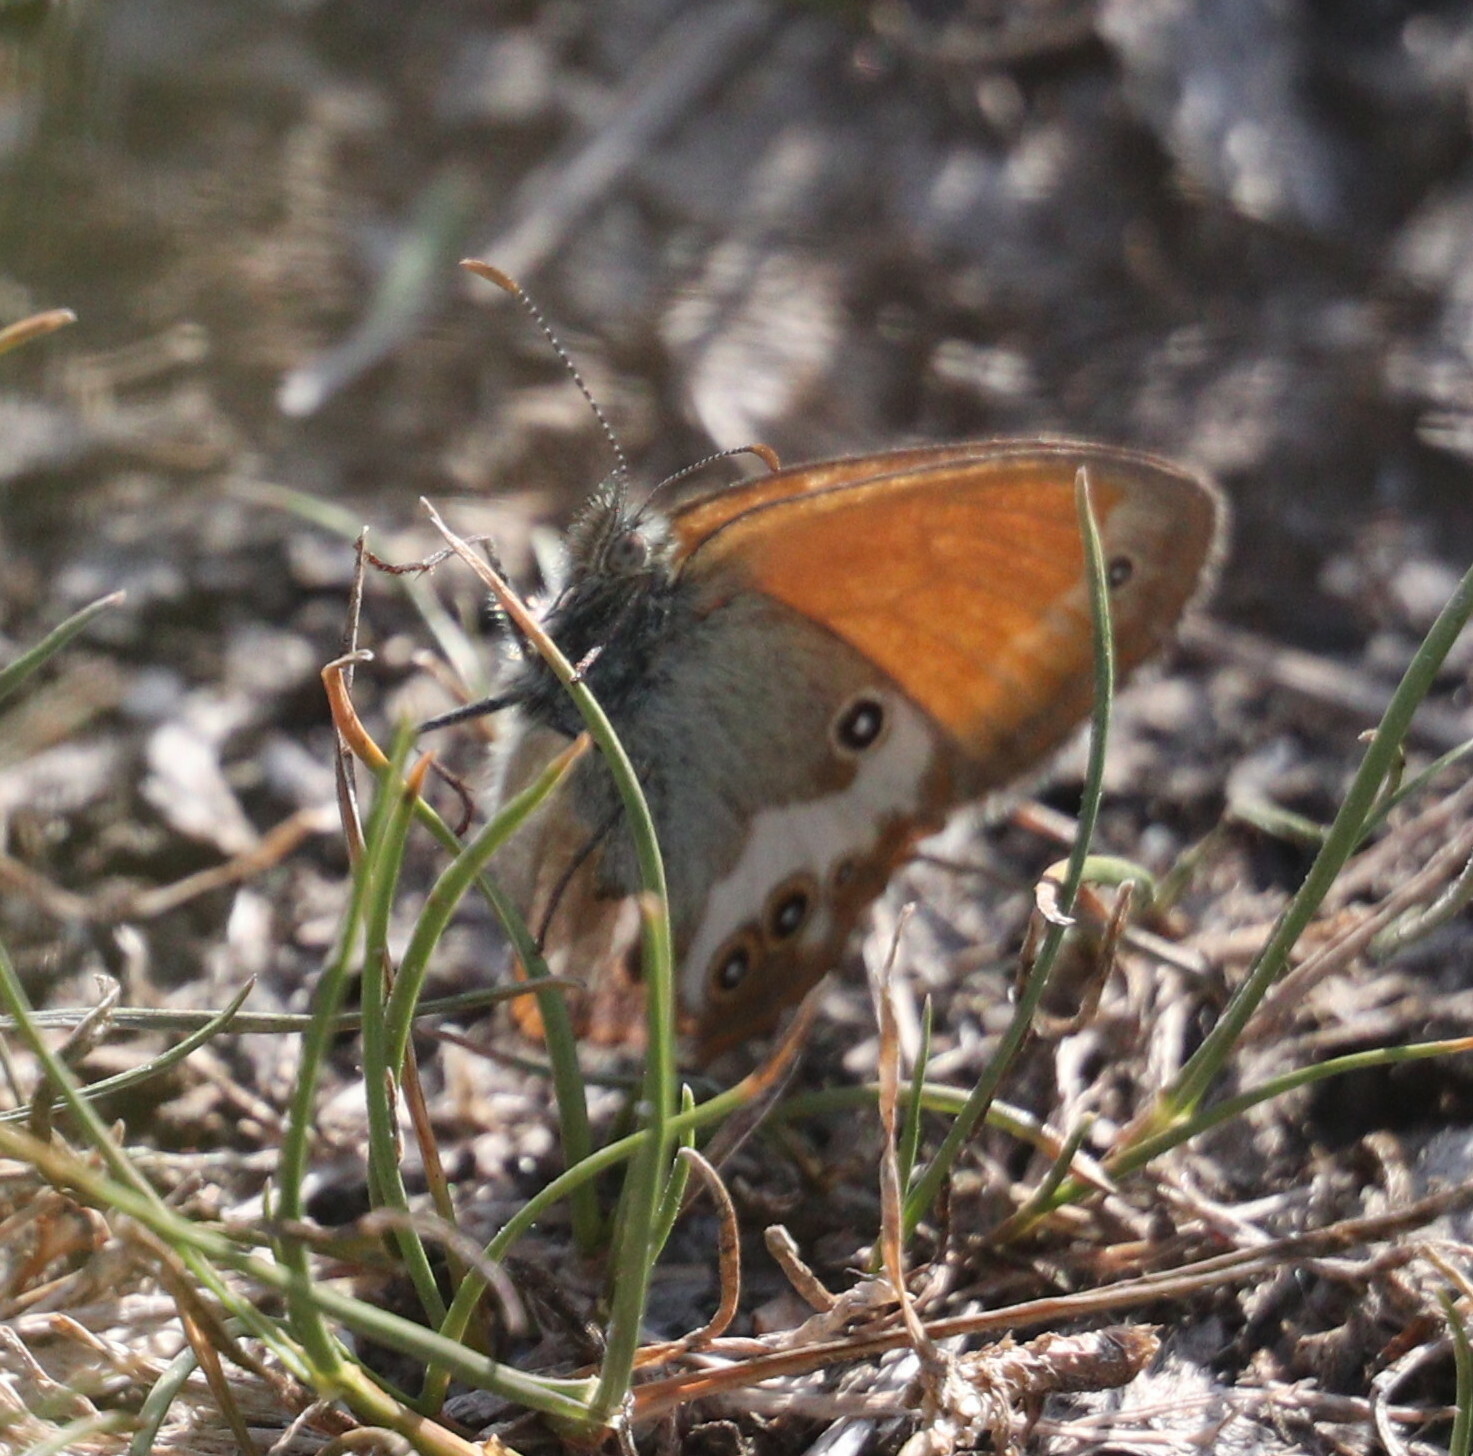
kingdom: Animalia
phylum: Arthropoda
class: Insecta
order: Lepidoptera
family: Nymphalidae
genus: Coenonympha
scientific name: Coenonympha arcania
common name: Pearly heath
